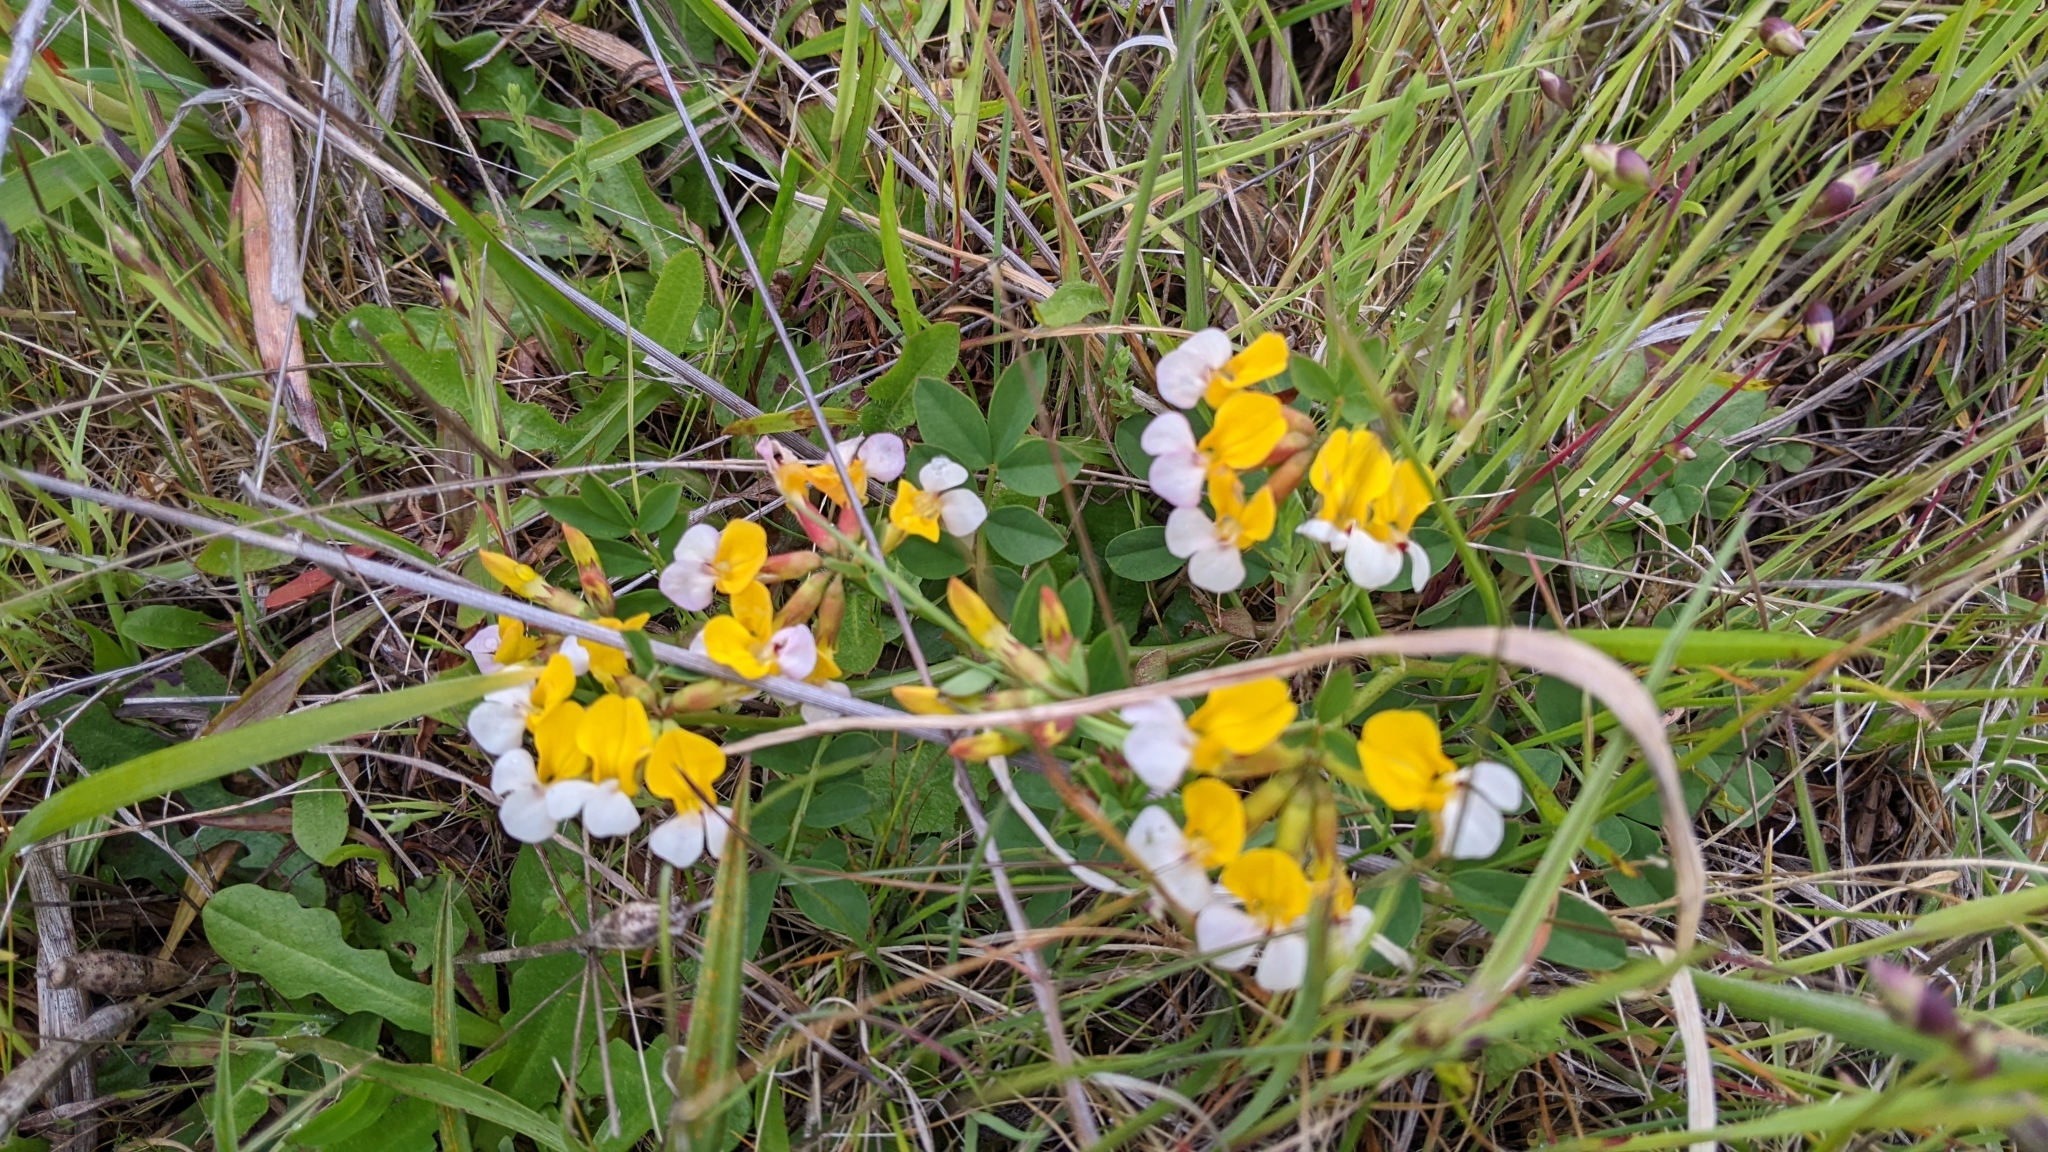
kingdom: Plantae
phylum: Tracheophyta
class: Magnoliopsida
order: Fabales
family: Fabaceae
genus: Hosackia
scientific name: Hosackia gracilis
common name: Seaside bird's-foot lotus
